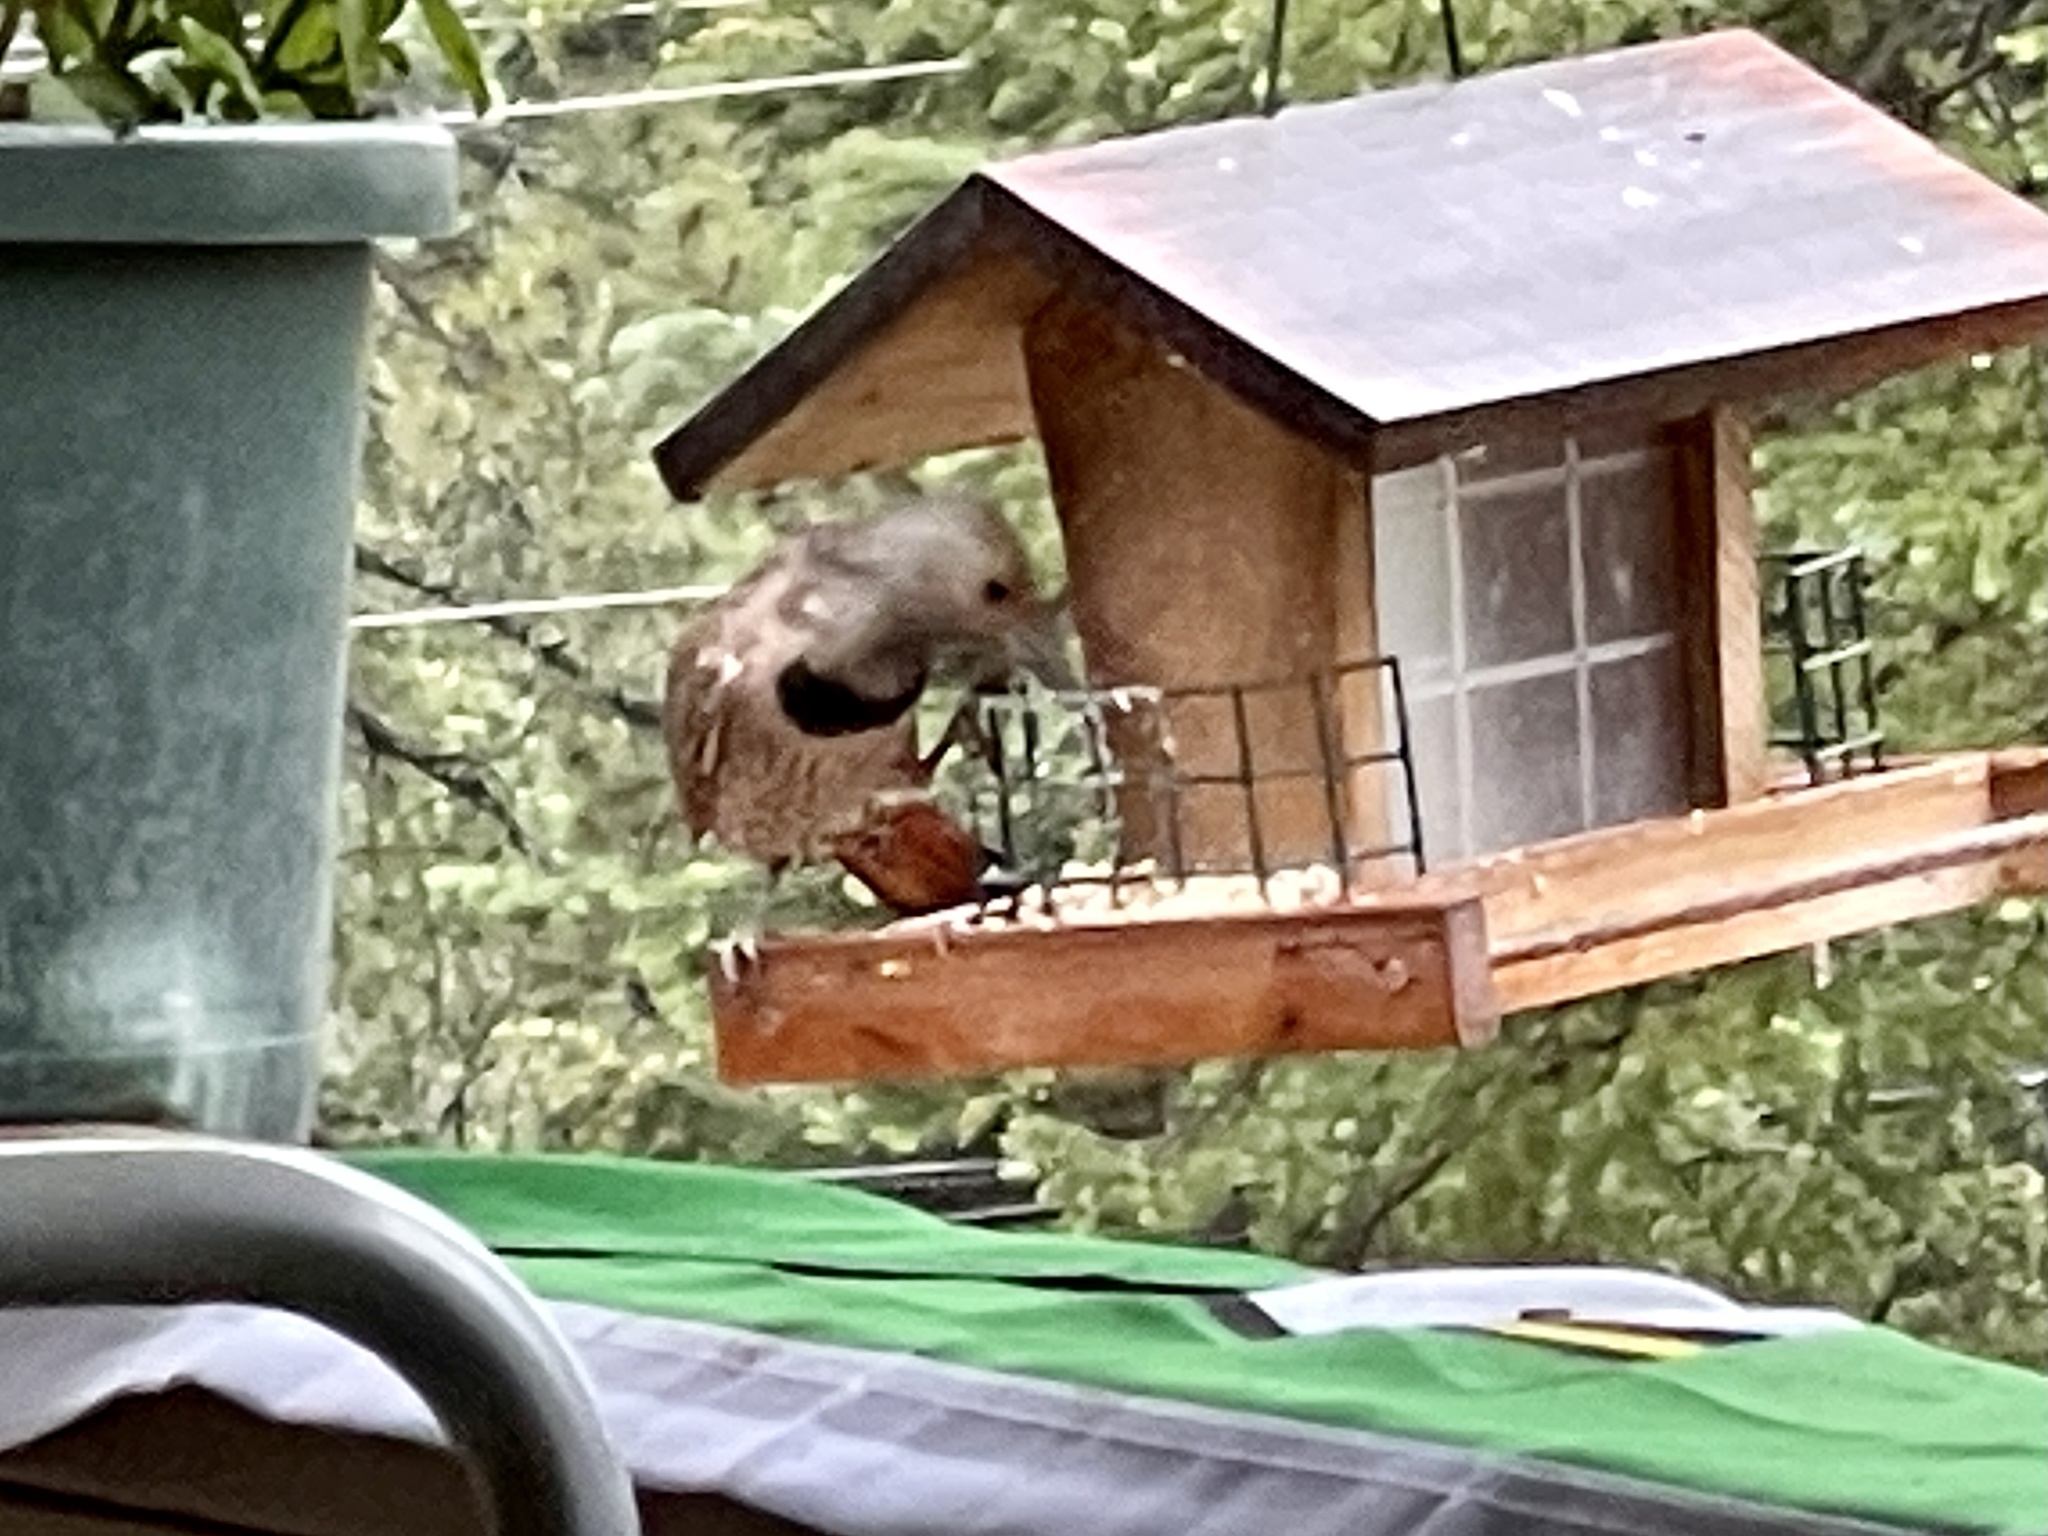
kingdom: Animalia
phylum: Chordata
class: Aves
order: Piciformes
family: Picidae
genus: Colaptes
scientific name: Colaptes auratus
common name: Northern flicker
